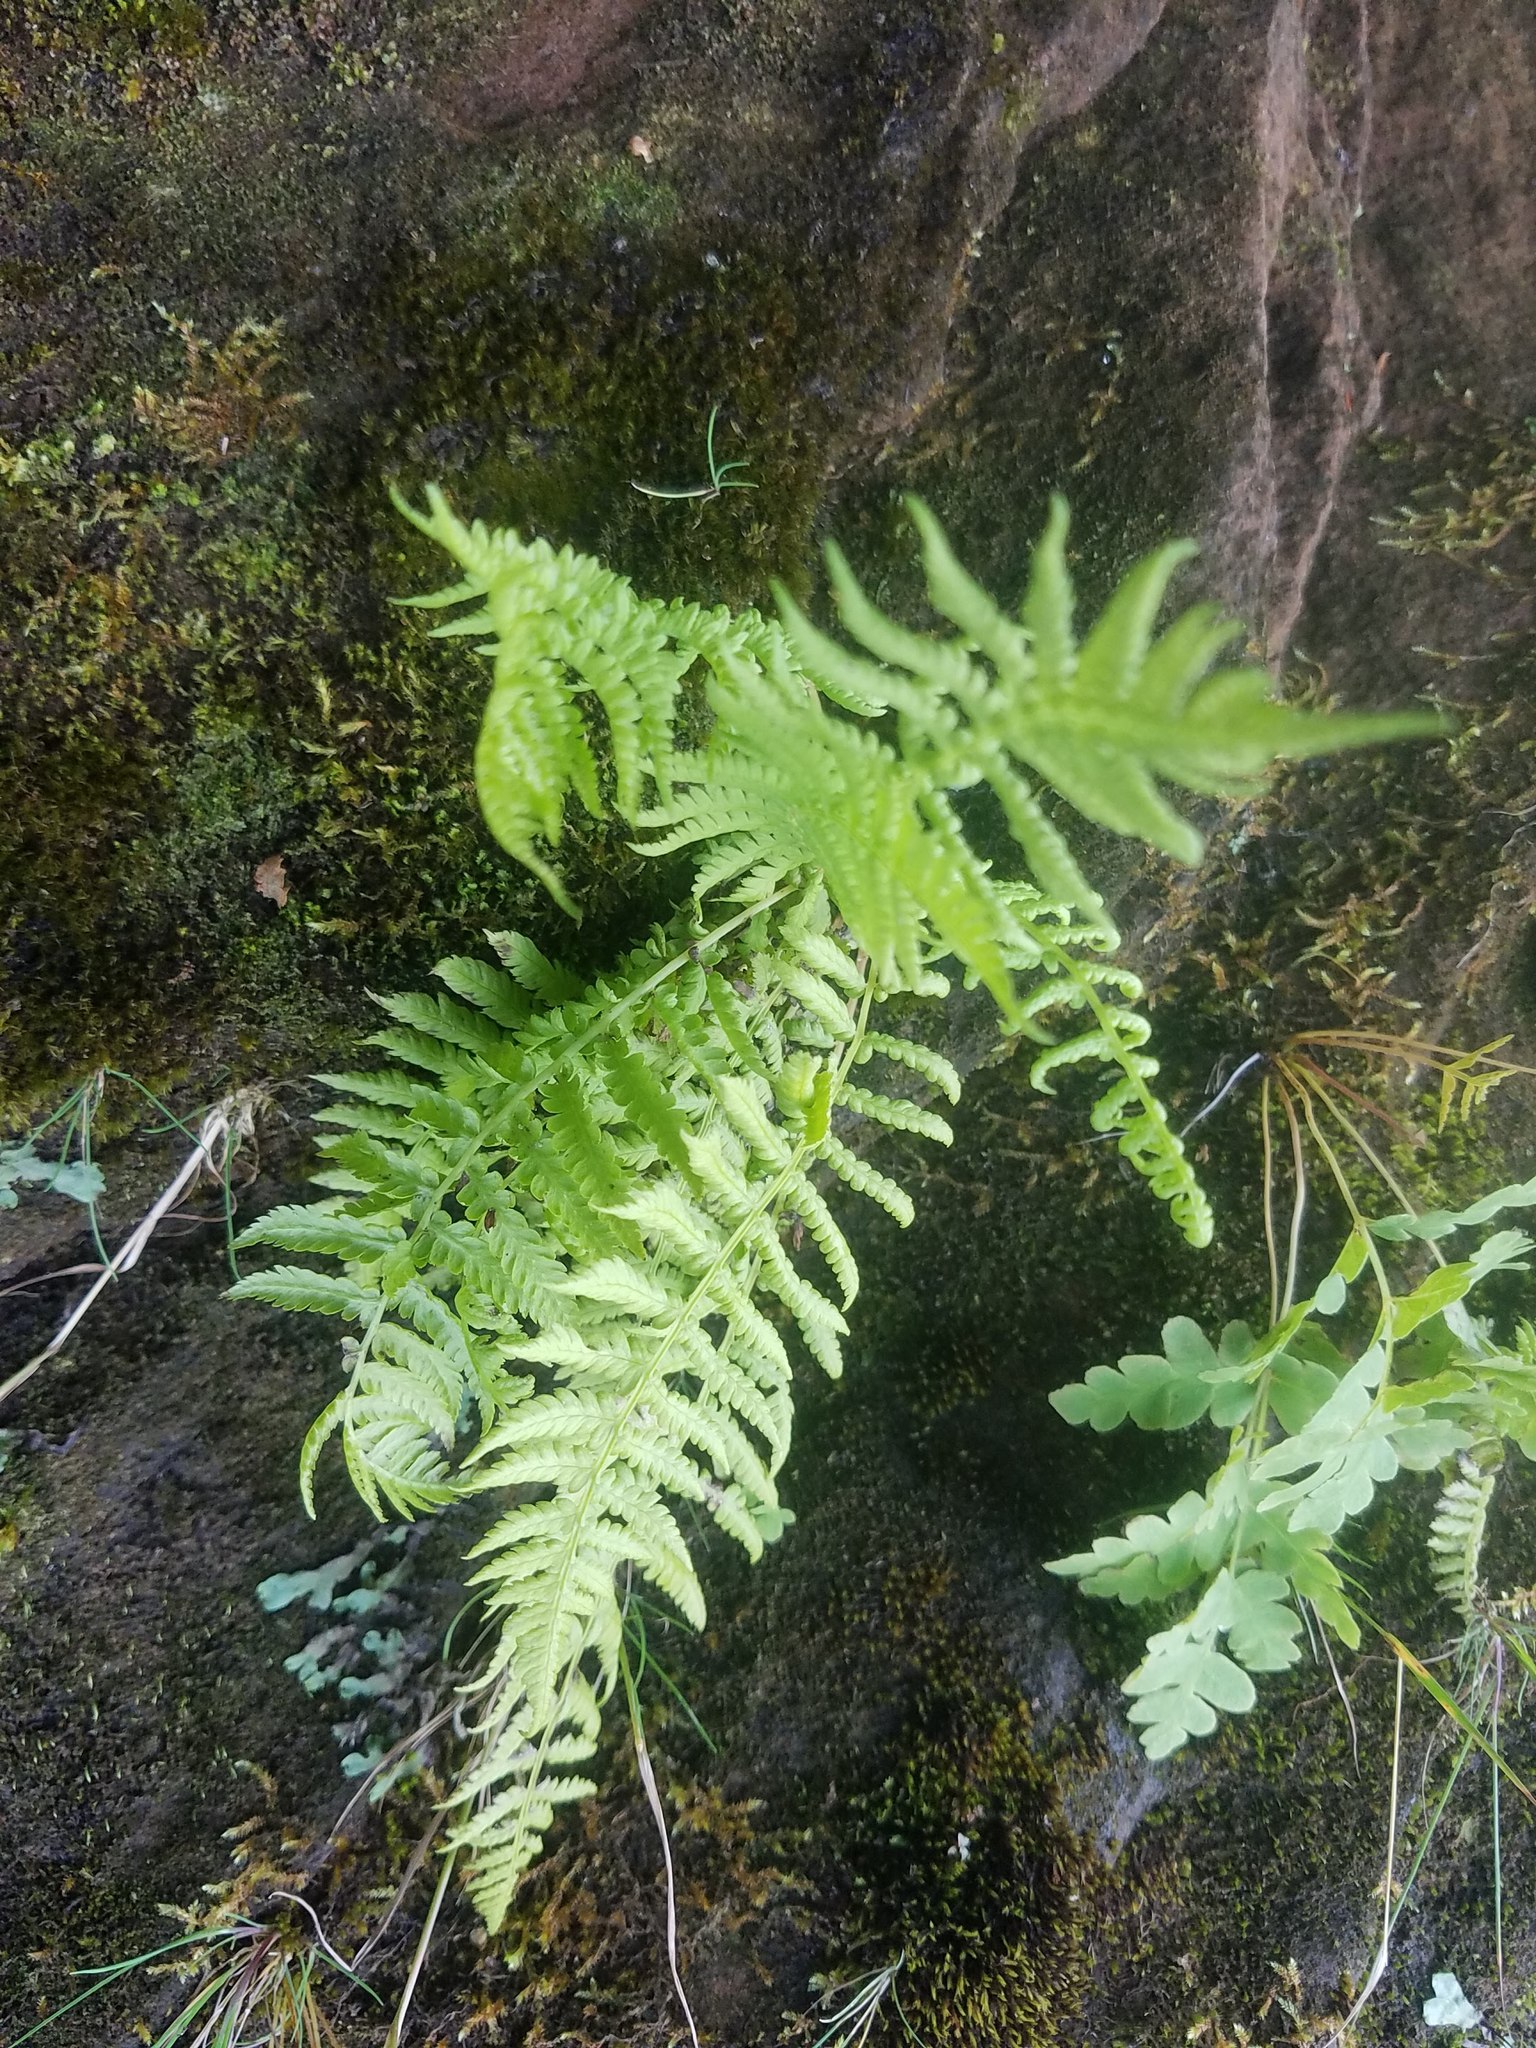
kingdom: Plantae
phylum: Tracheophyta
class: Polypodiopsida
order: Polypodiales
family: Thelypteridaceae
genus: Thelypteris
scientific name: Thelypteris palustris
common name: Marsh fern
